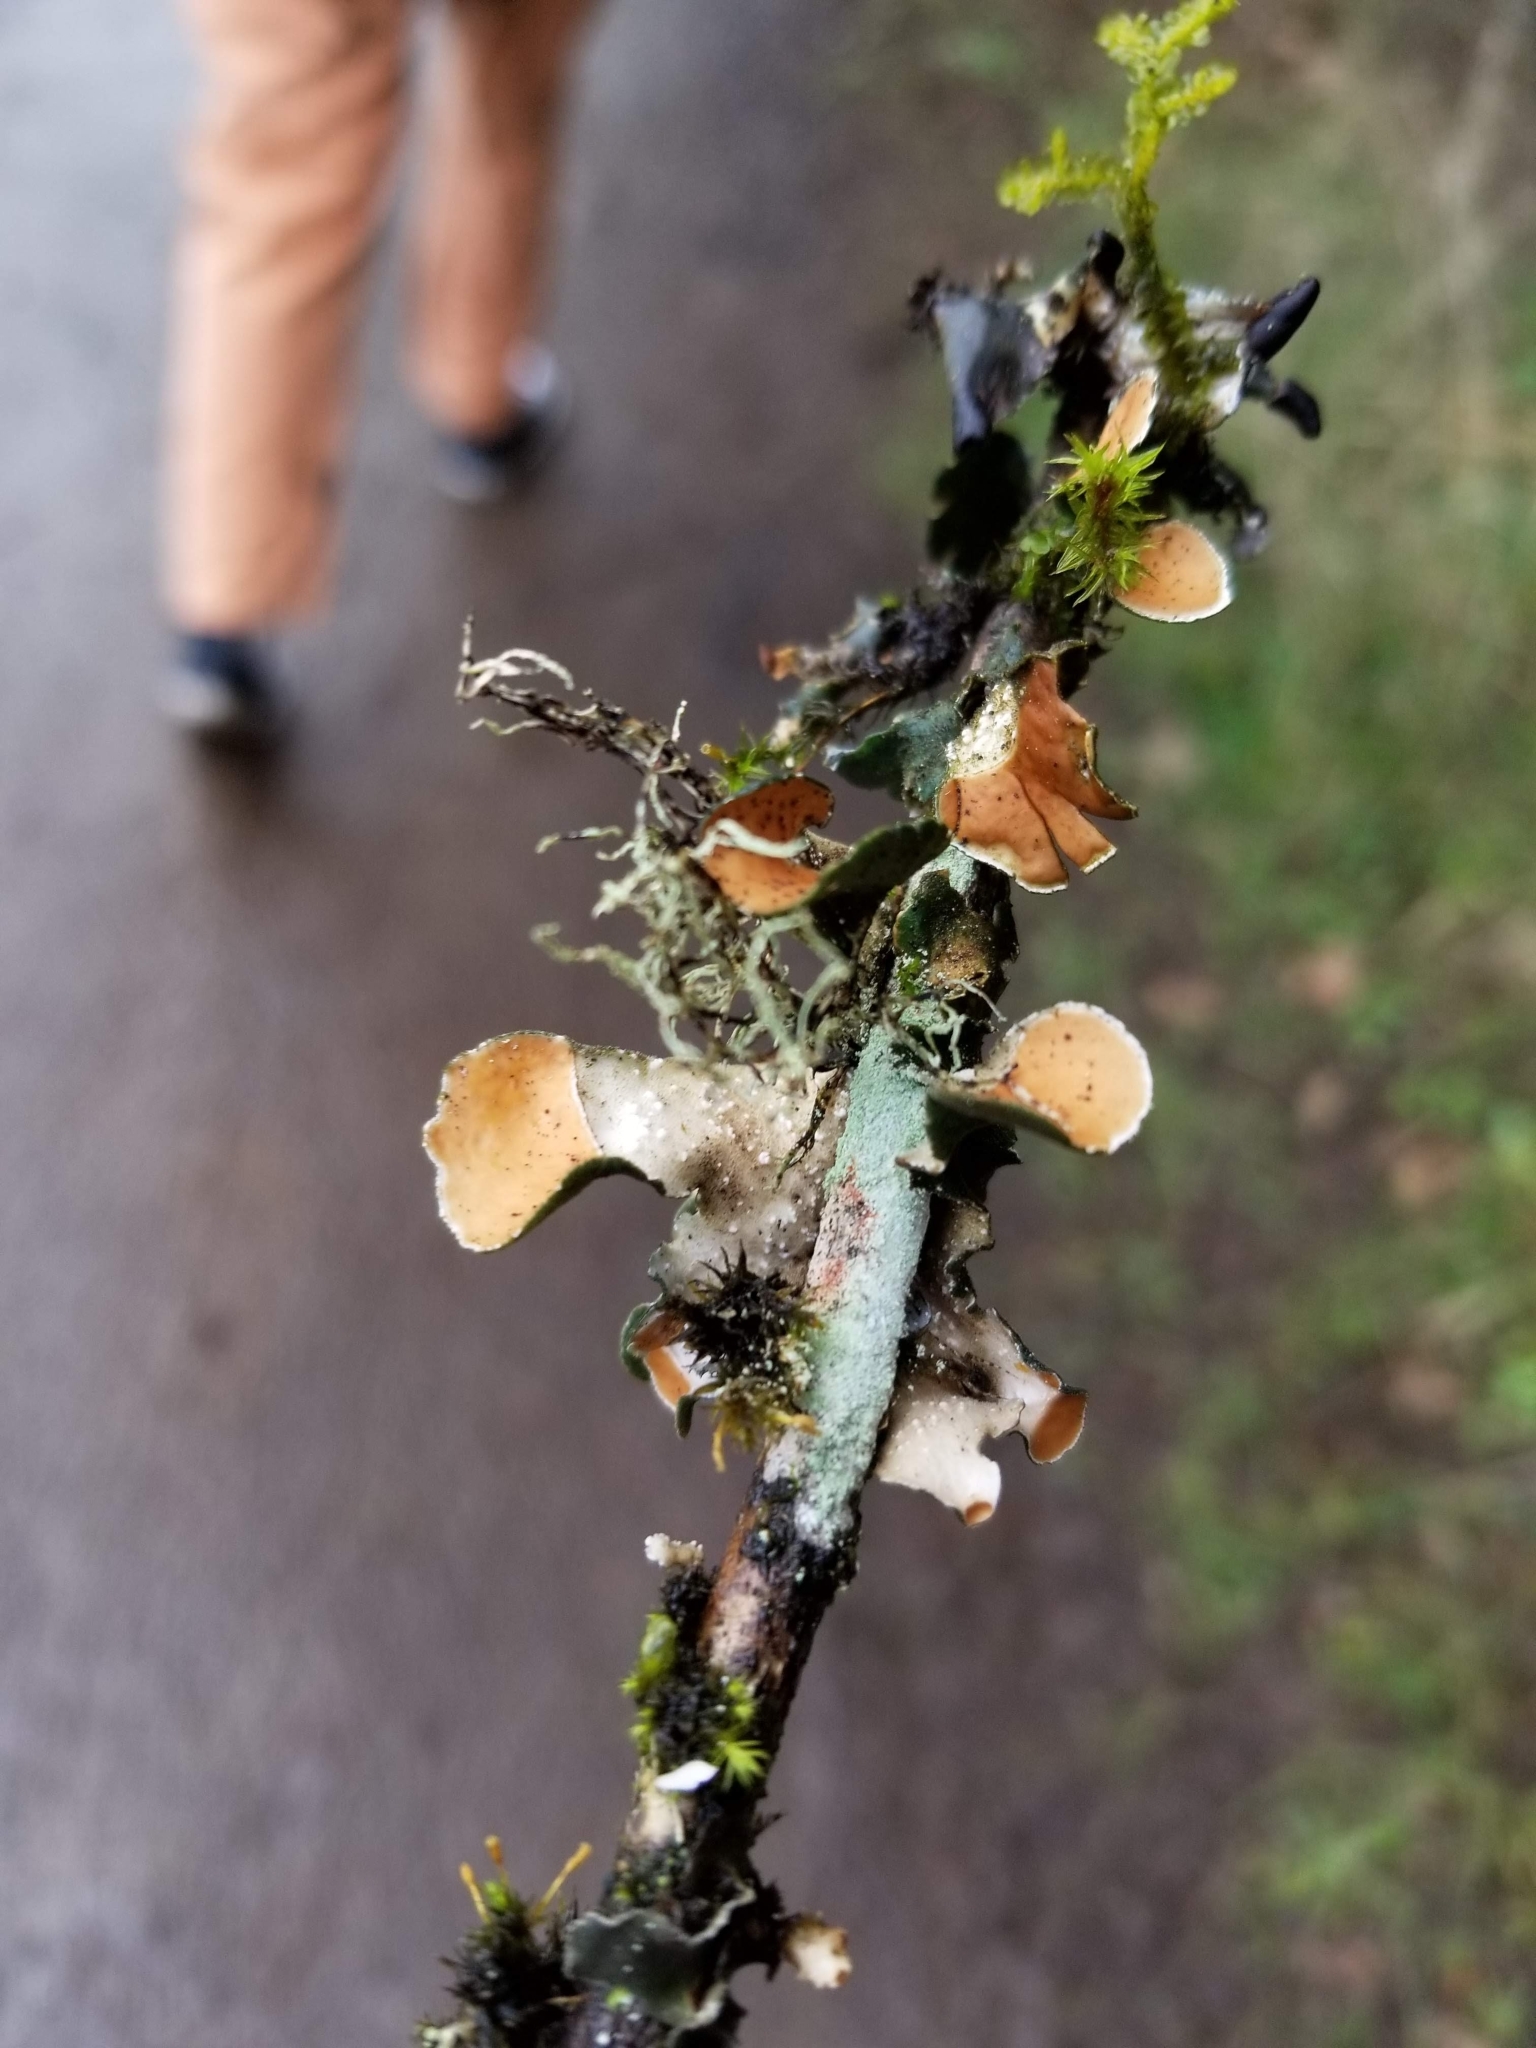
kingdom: Fungi
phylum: Ascomycota
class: Lecanoromycetes
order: Peltigerales
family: Nephromataceae
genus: Nephroma
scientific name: Nephroma resupinatum
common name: Pimpled kidney lichen
